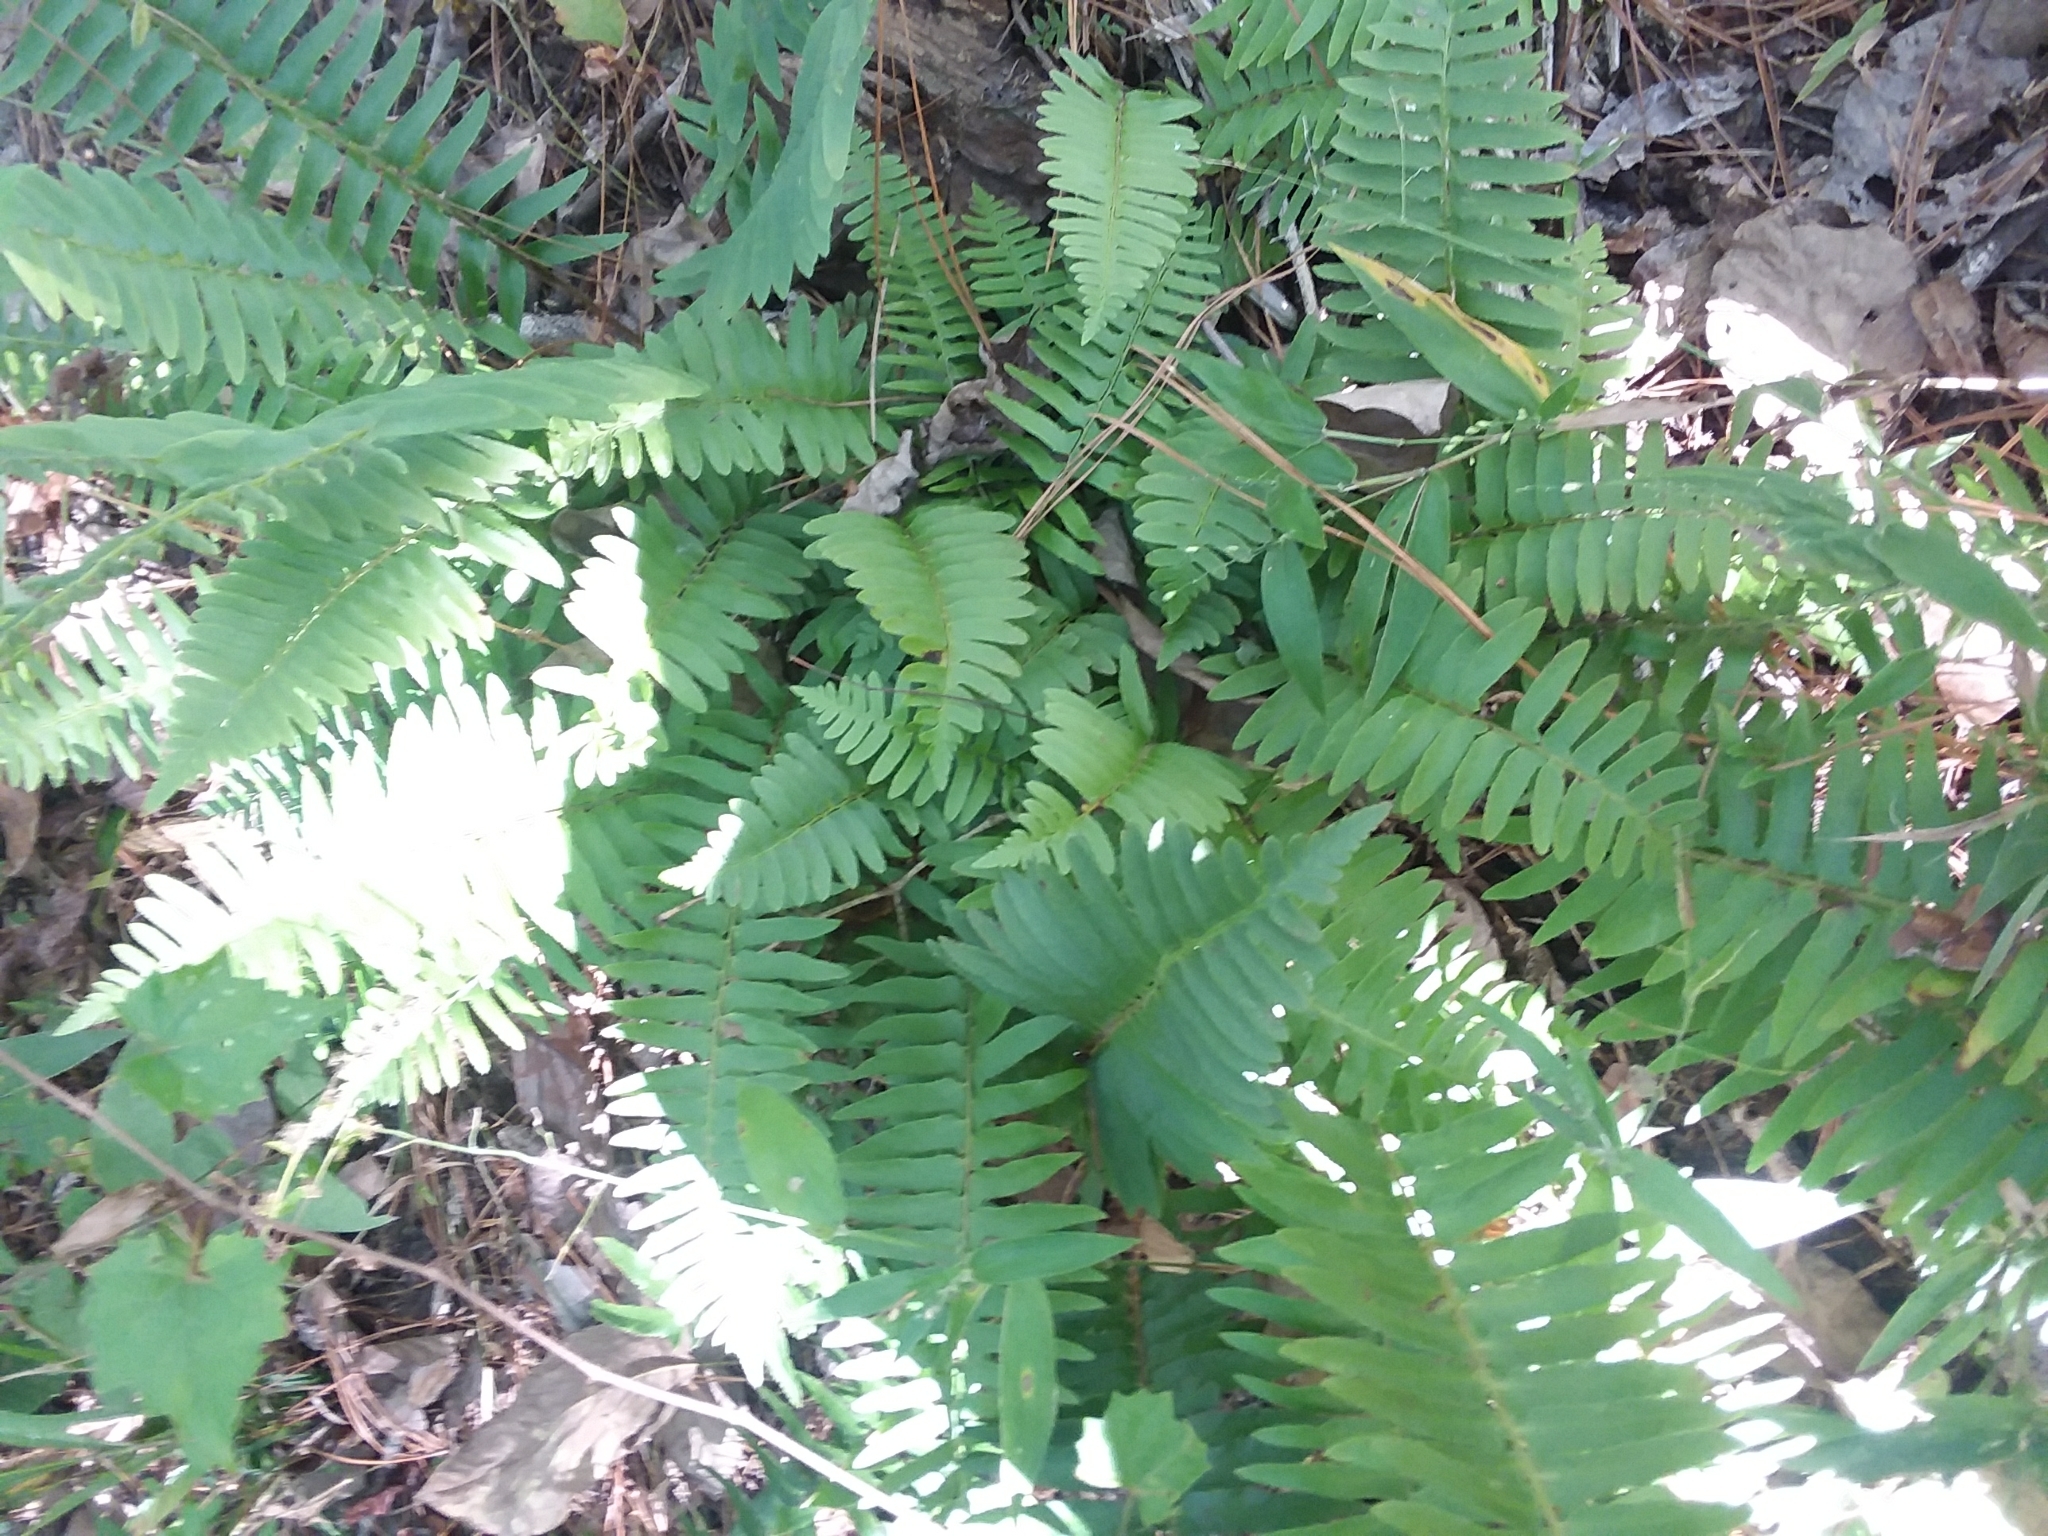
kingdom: Plantae
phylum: Tracheophyta
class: Polypodiopsida
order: Polypodiales
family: Dryopteridaceae
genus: Polystichum
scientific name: Polystichum acrostichoides
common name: Christmas fern
